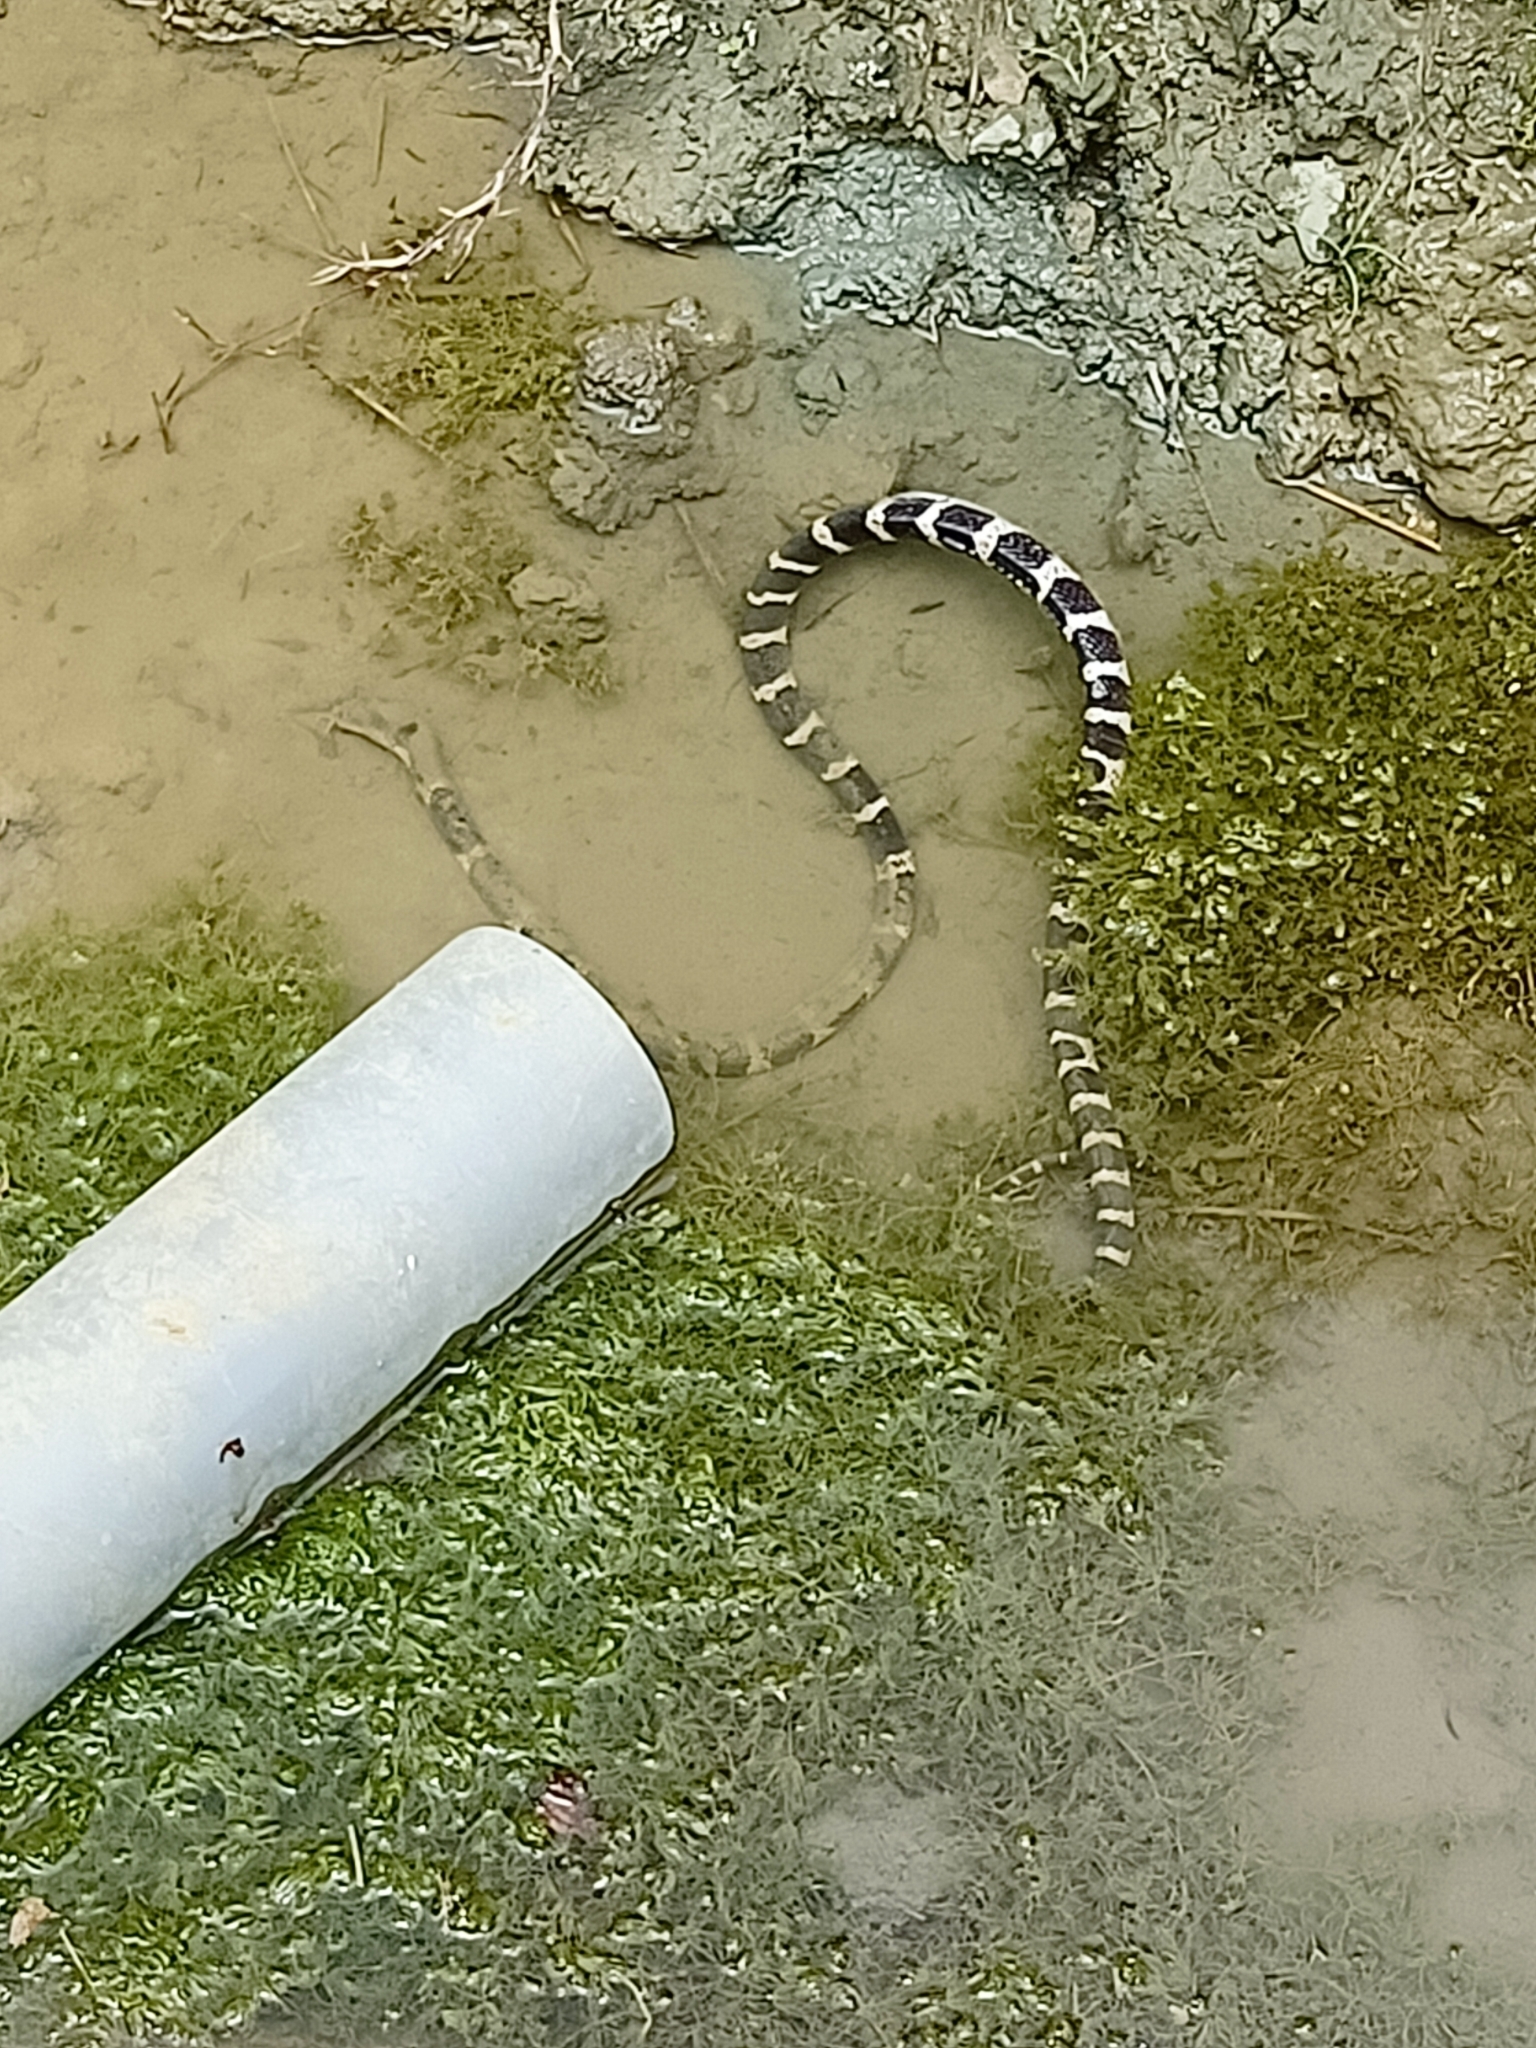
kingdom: Animalia
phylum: Chordata
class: Squamata
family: Elapidae
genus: Bungarus
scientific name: Bungarus multicinctus
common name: Many-banded krait
